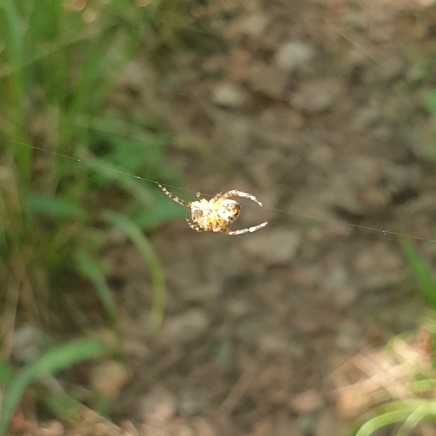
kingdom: Animalia
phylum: Arthropoda
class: Arachnida
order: Araneae
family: Araneidae
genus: Araneus
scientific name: Araneus diadematus
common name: Cross orbweaver
